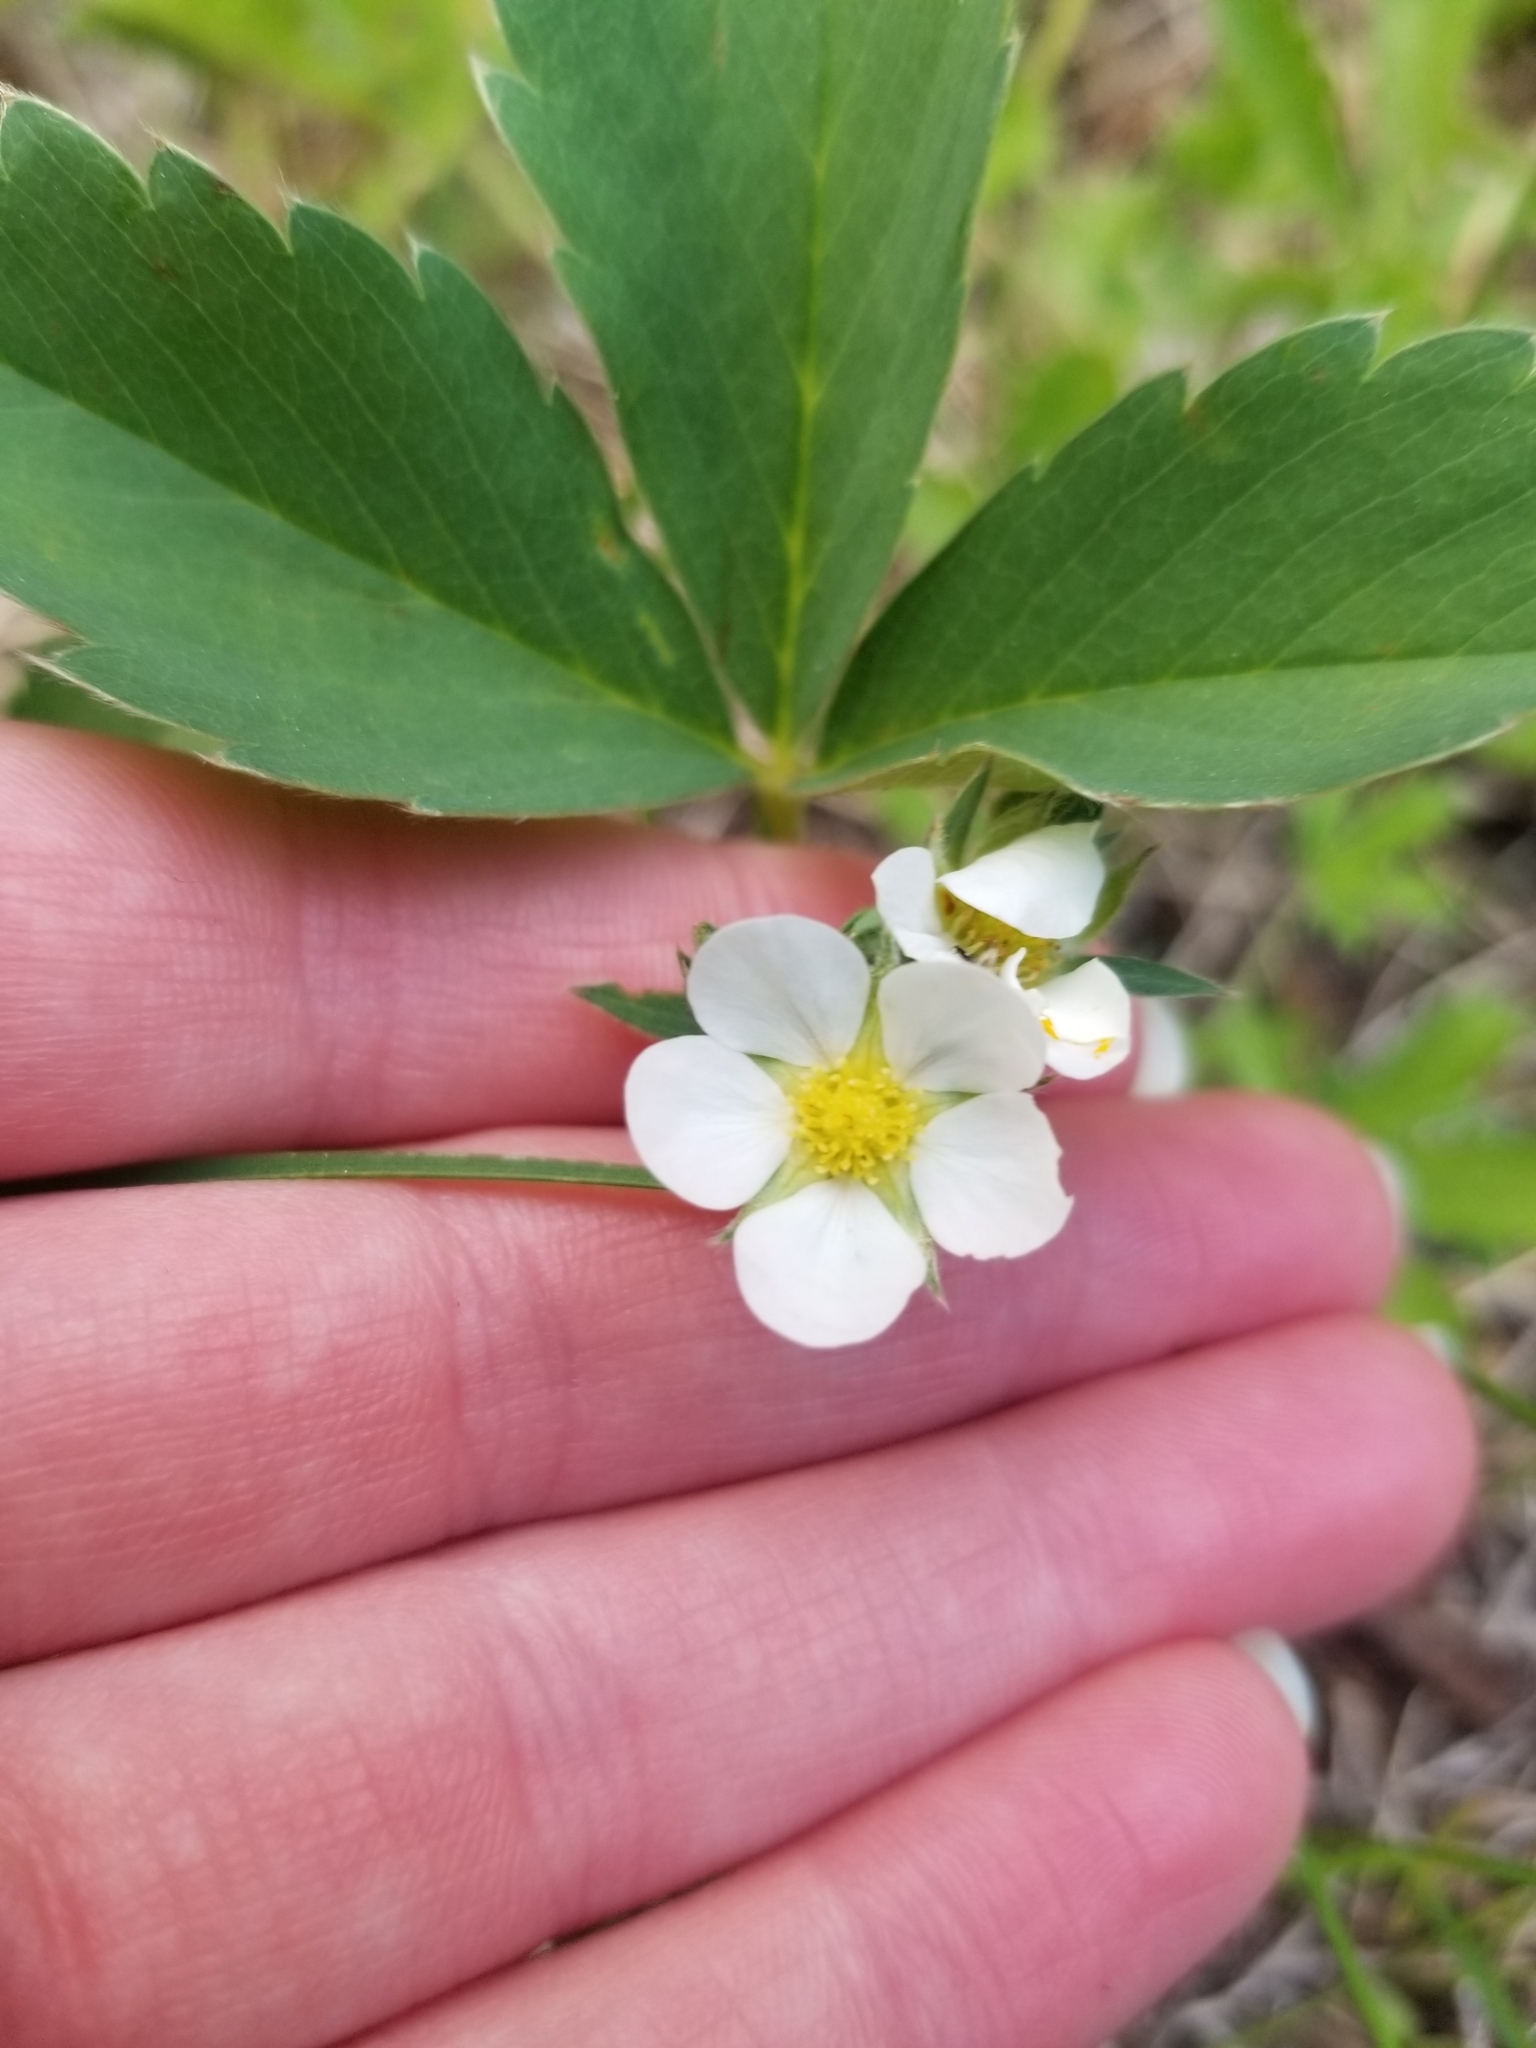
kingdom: Plantae
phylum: Tracheophyta
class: Magnoliopsida
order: Rosales
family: Rosaceae
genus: Fragaria
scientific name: Fragaria virginiana
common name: Thickleaved wild strawberry
